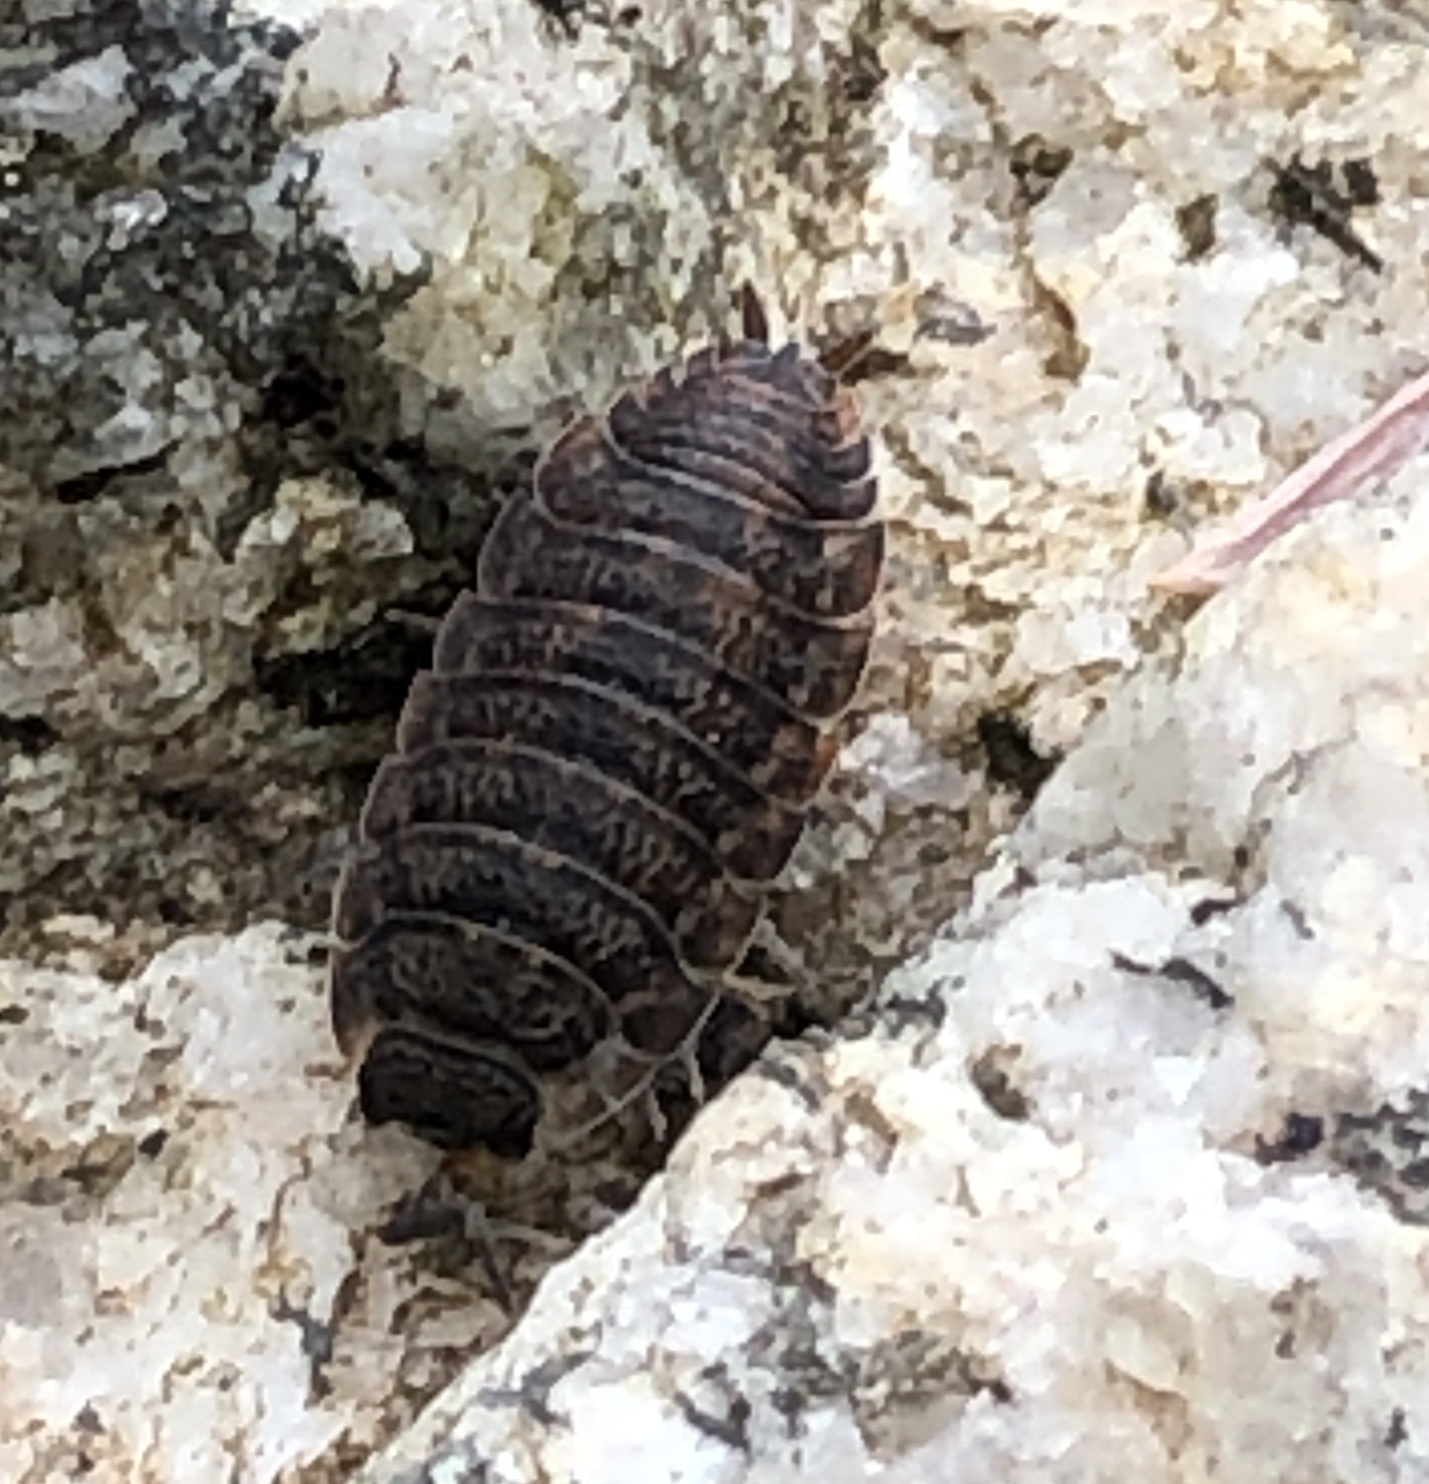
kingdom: Animalia
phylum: Arthropoda
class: Malacostraca
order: Isopoda
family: Porcellionidae
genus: Porcellio
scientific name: Porcellio scaber
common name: Common rough woodlouse
